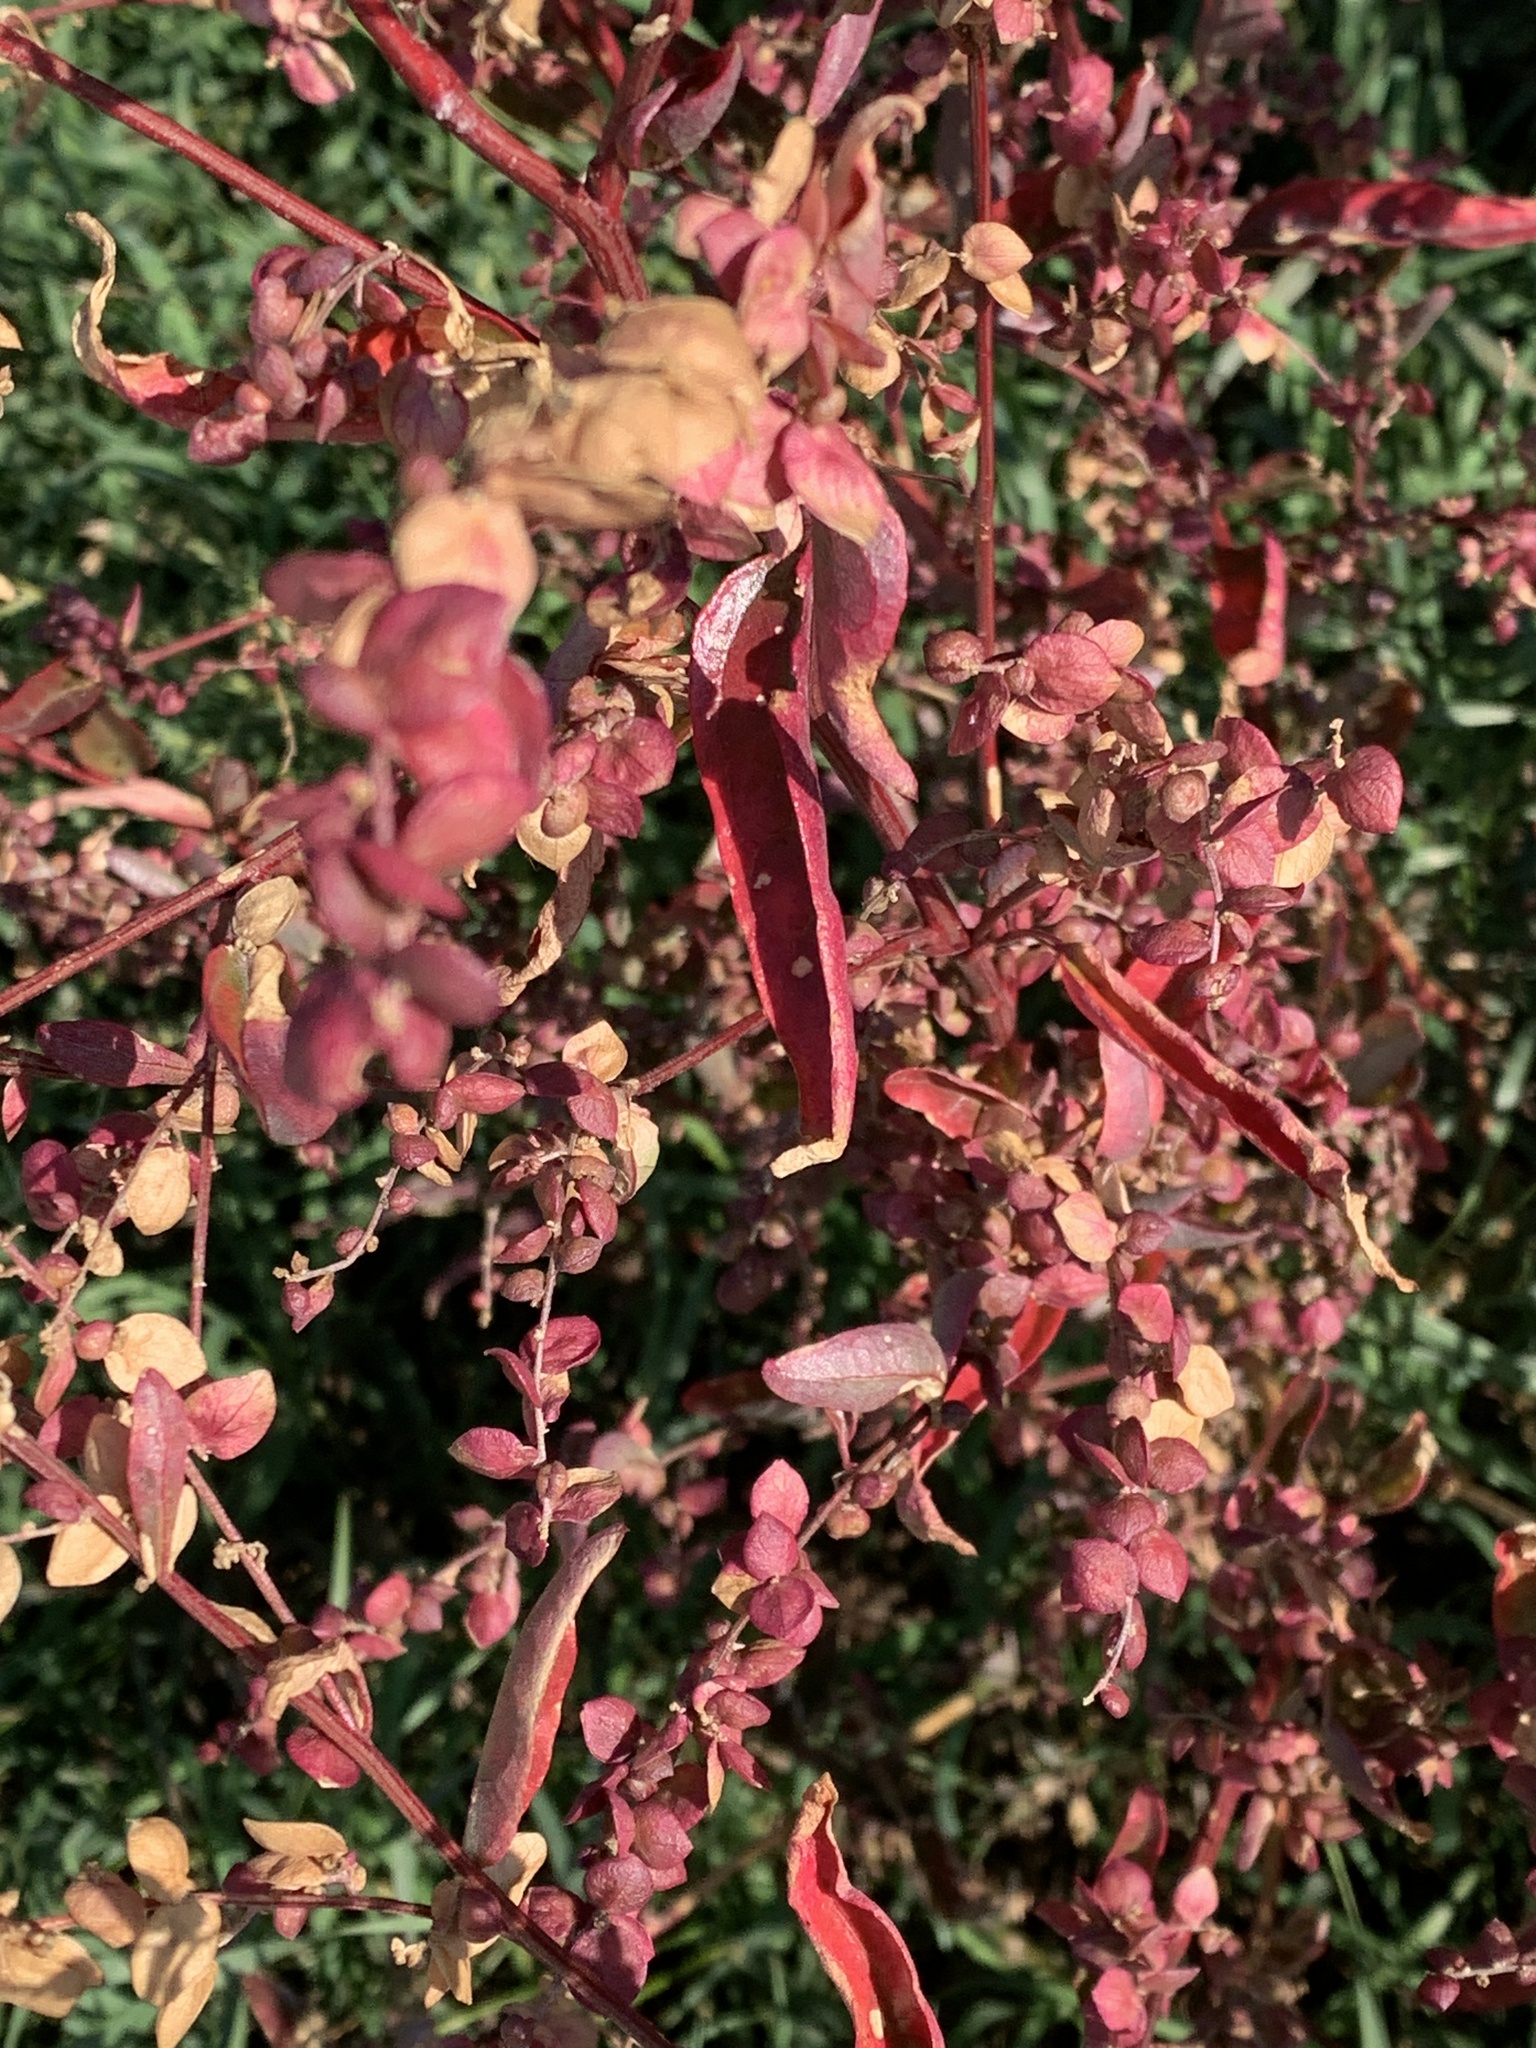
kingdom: Plantae
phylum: Tracheophyta
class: Magnoliopsida
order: Caryophyllales
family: Amaranthaceae
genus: Atriplex
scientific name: Atriplex hortensis
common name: Garden orache
